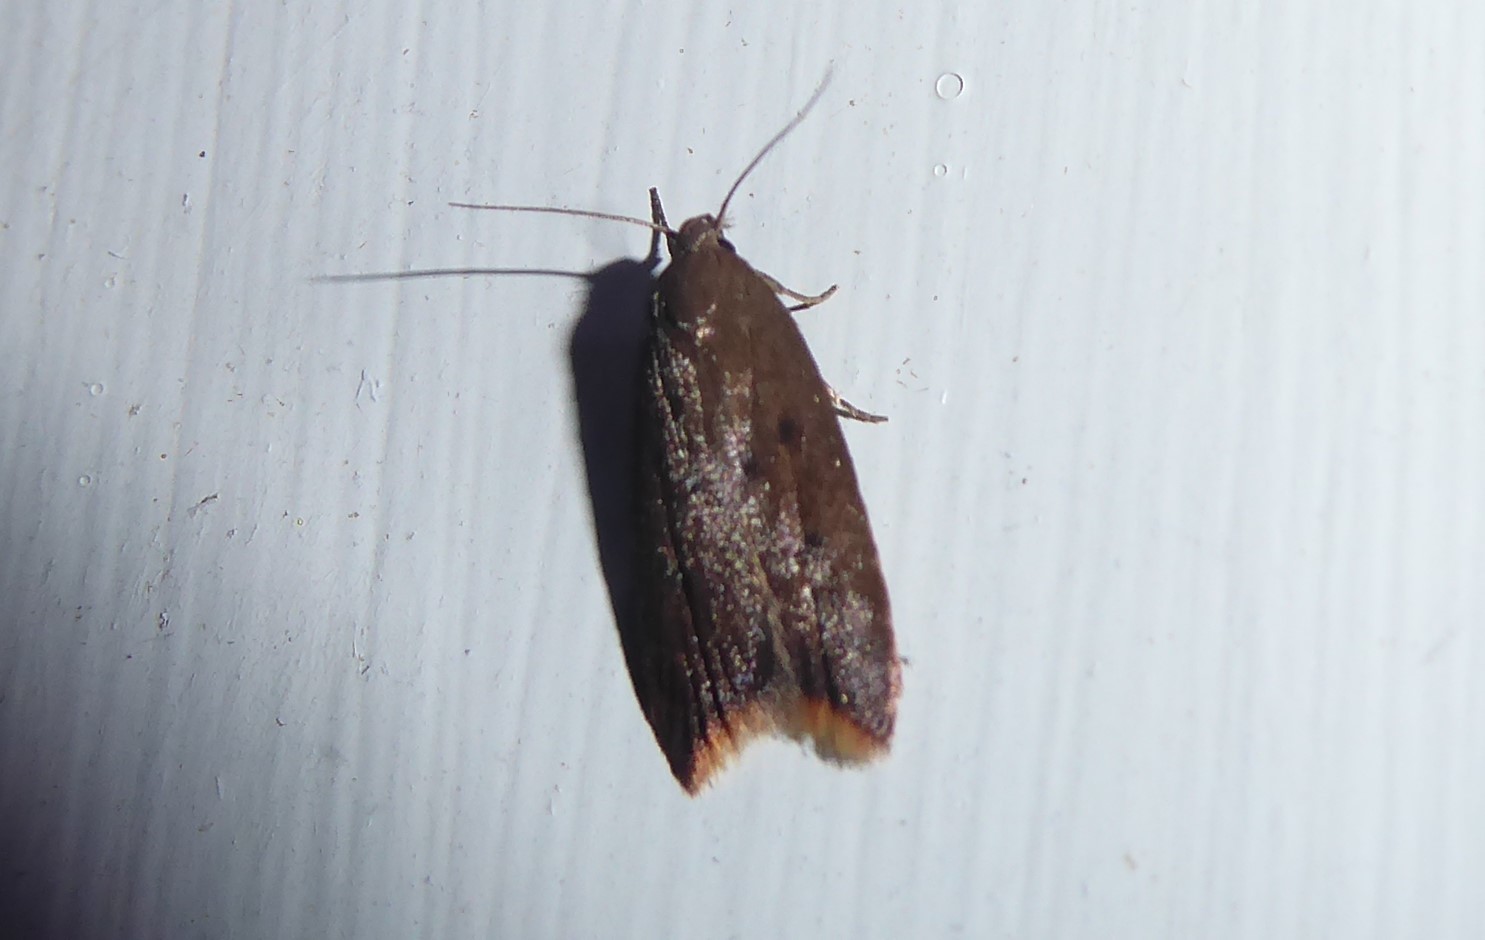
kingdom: Animalia
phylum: Arthropoda
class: Insecta
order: Lepidoptera
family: Oecophoridae
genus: Tachystola
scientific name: Tachystola acroxantha
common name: Ruddy streak
